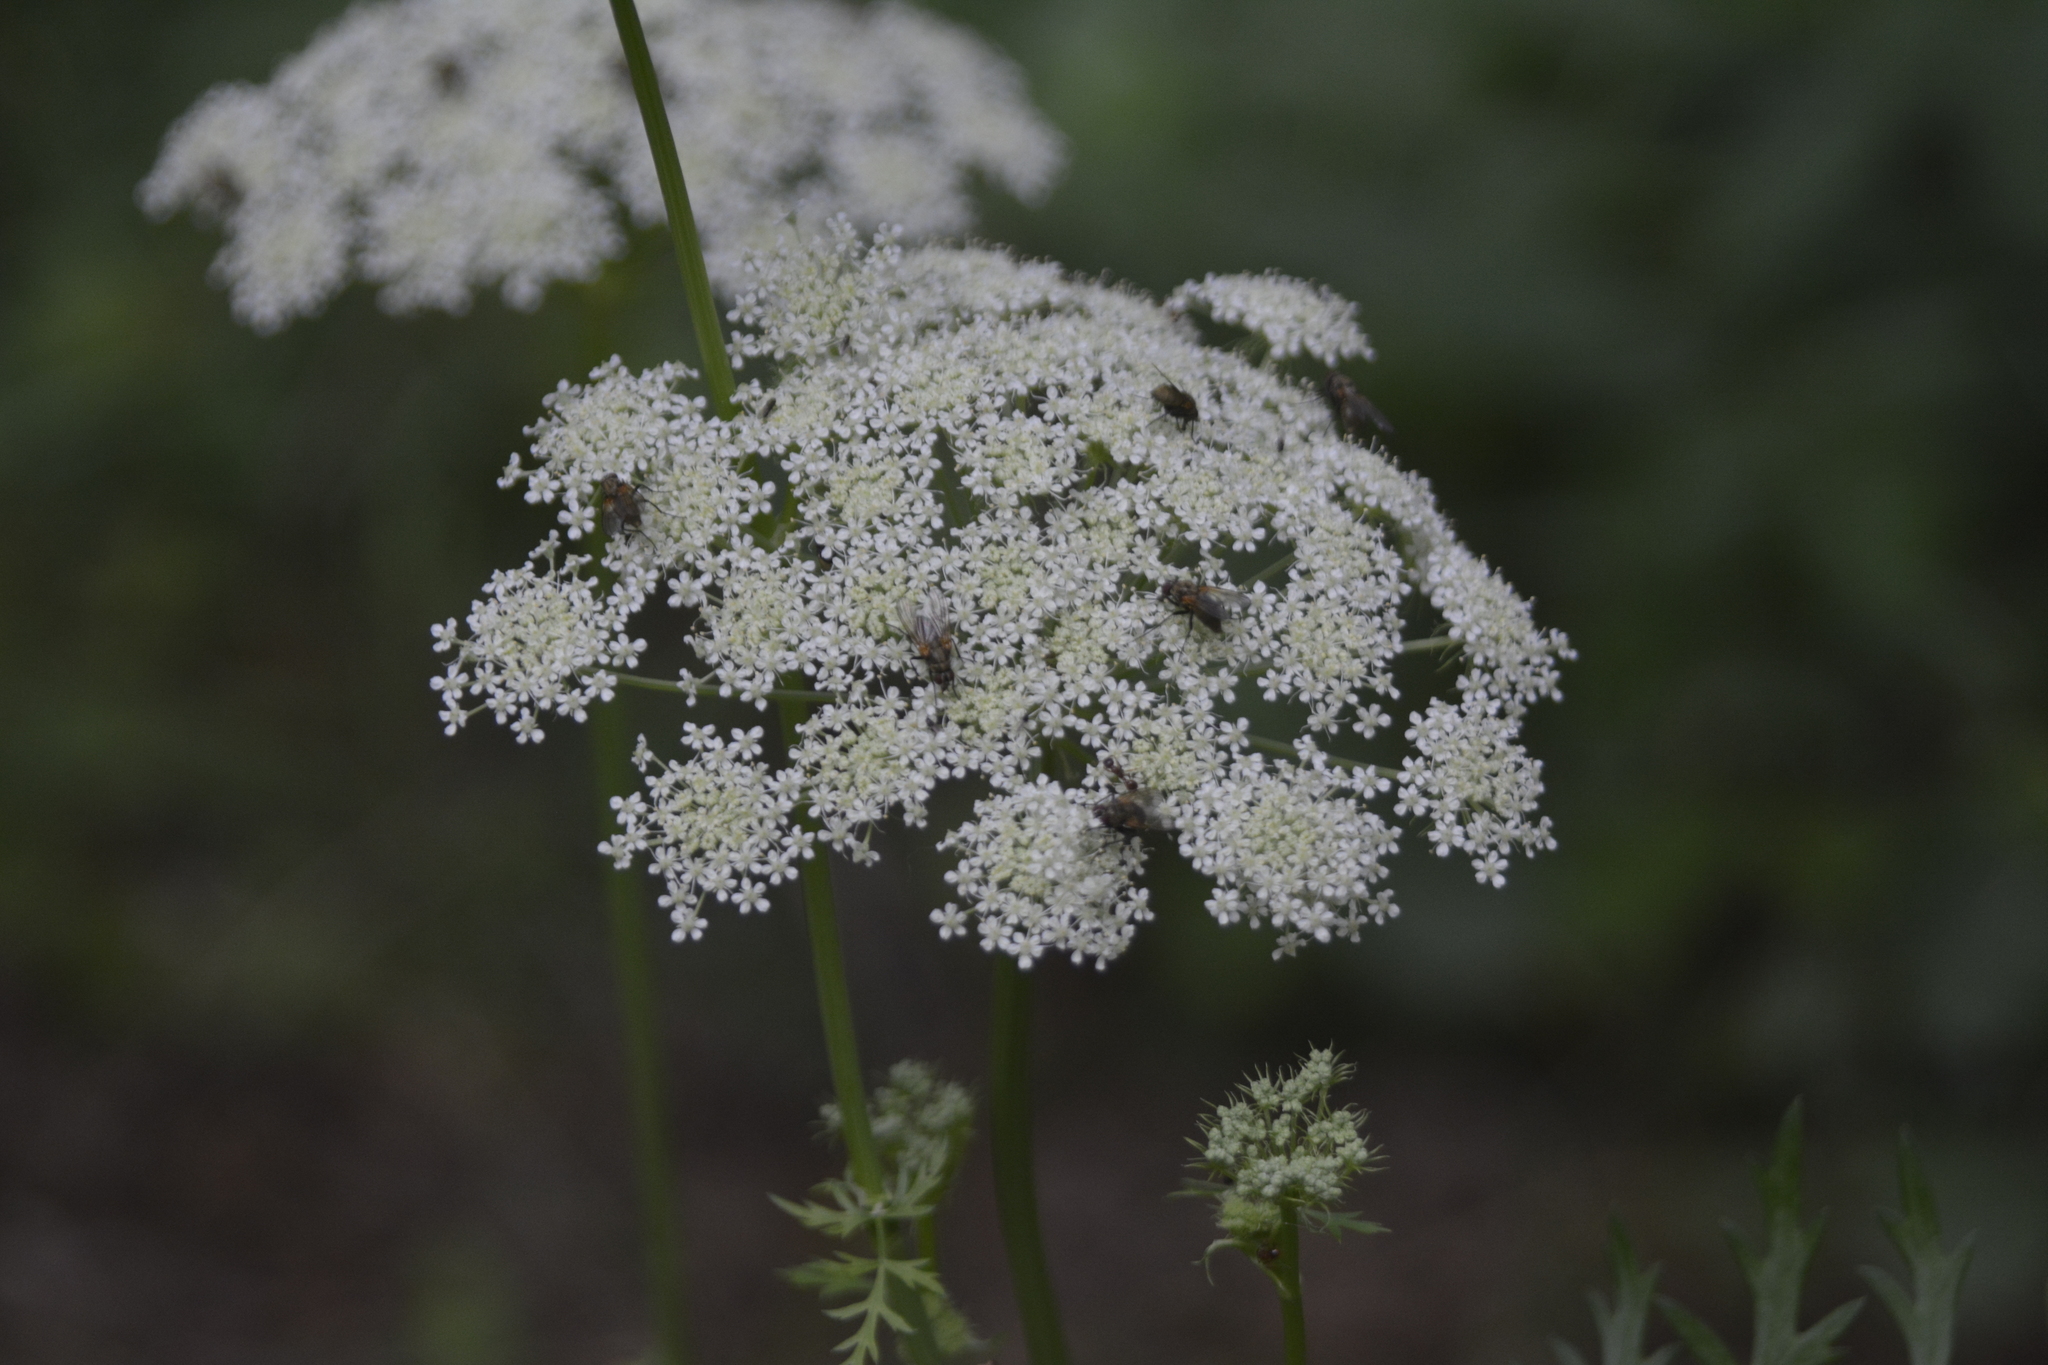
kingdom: Plantae
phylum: Tracheophyta
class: Magnoliopsida
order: Apiales
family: Apiaceae
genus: Seseli
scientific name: Seseli libanotis
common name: Mooncarrot
